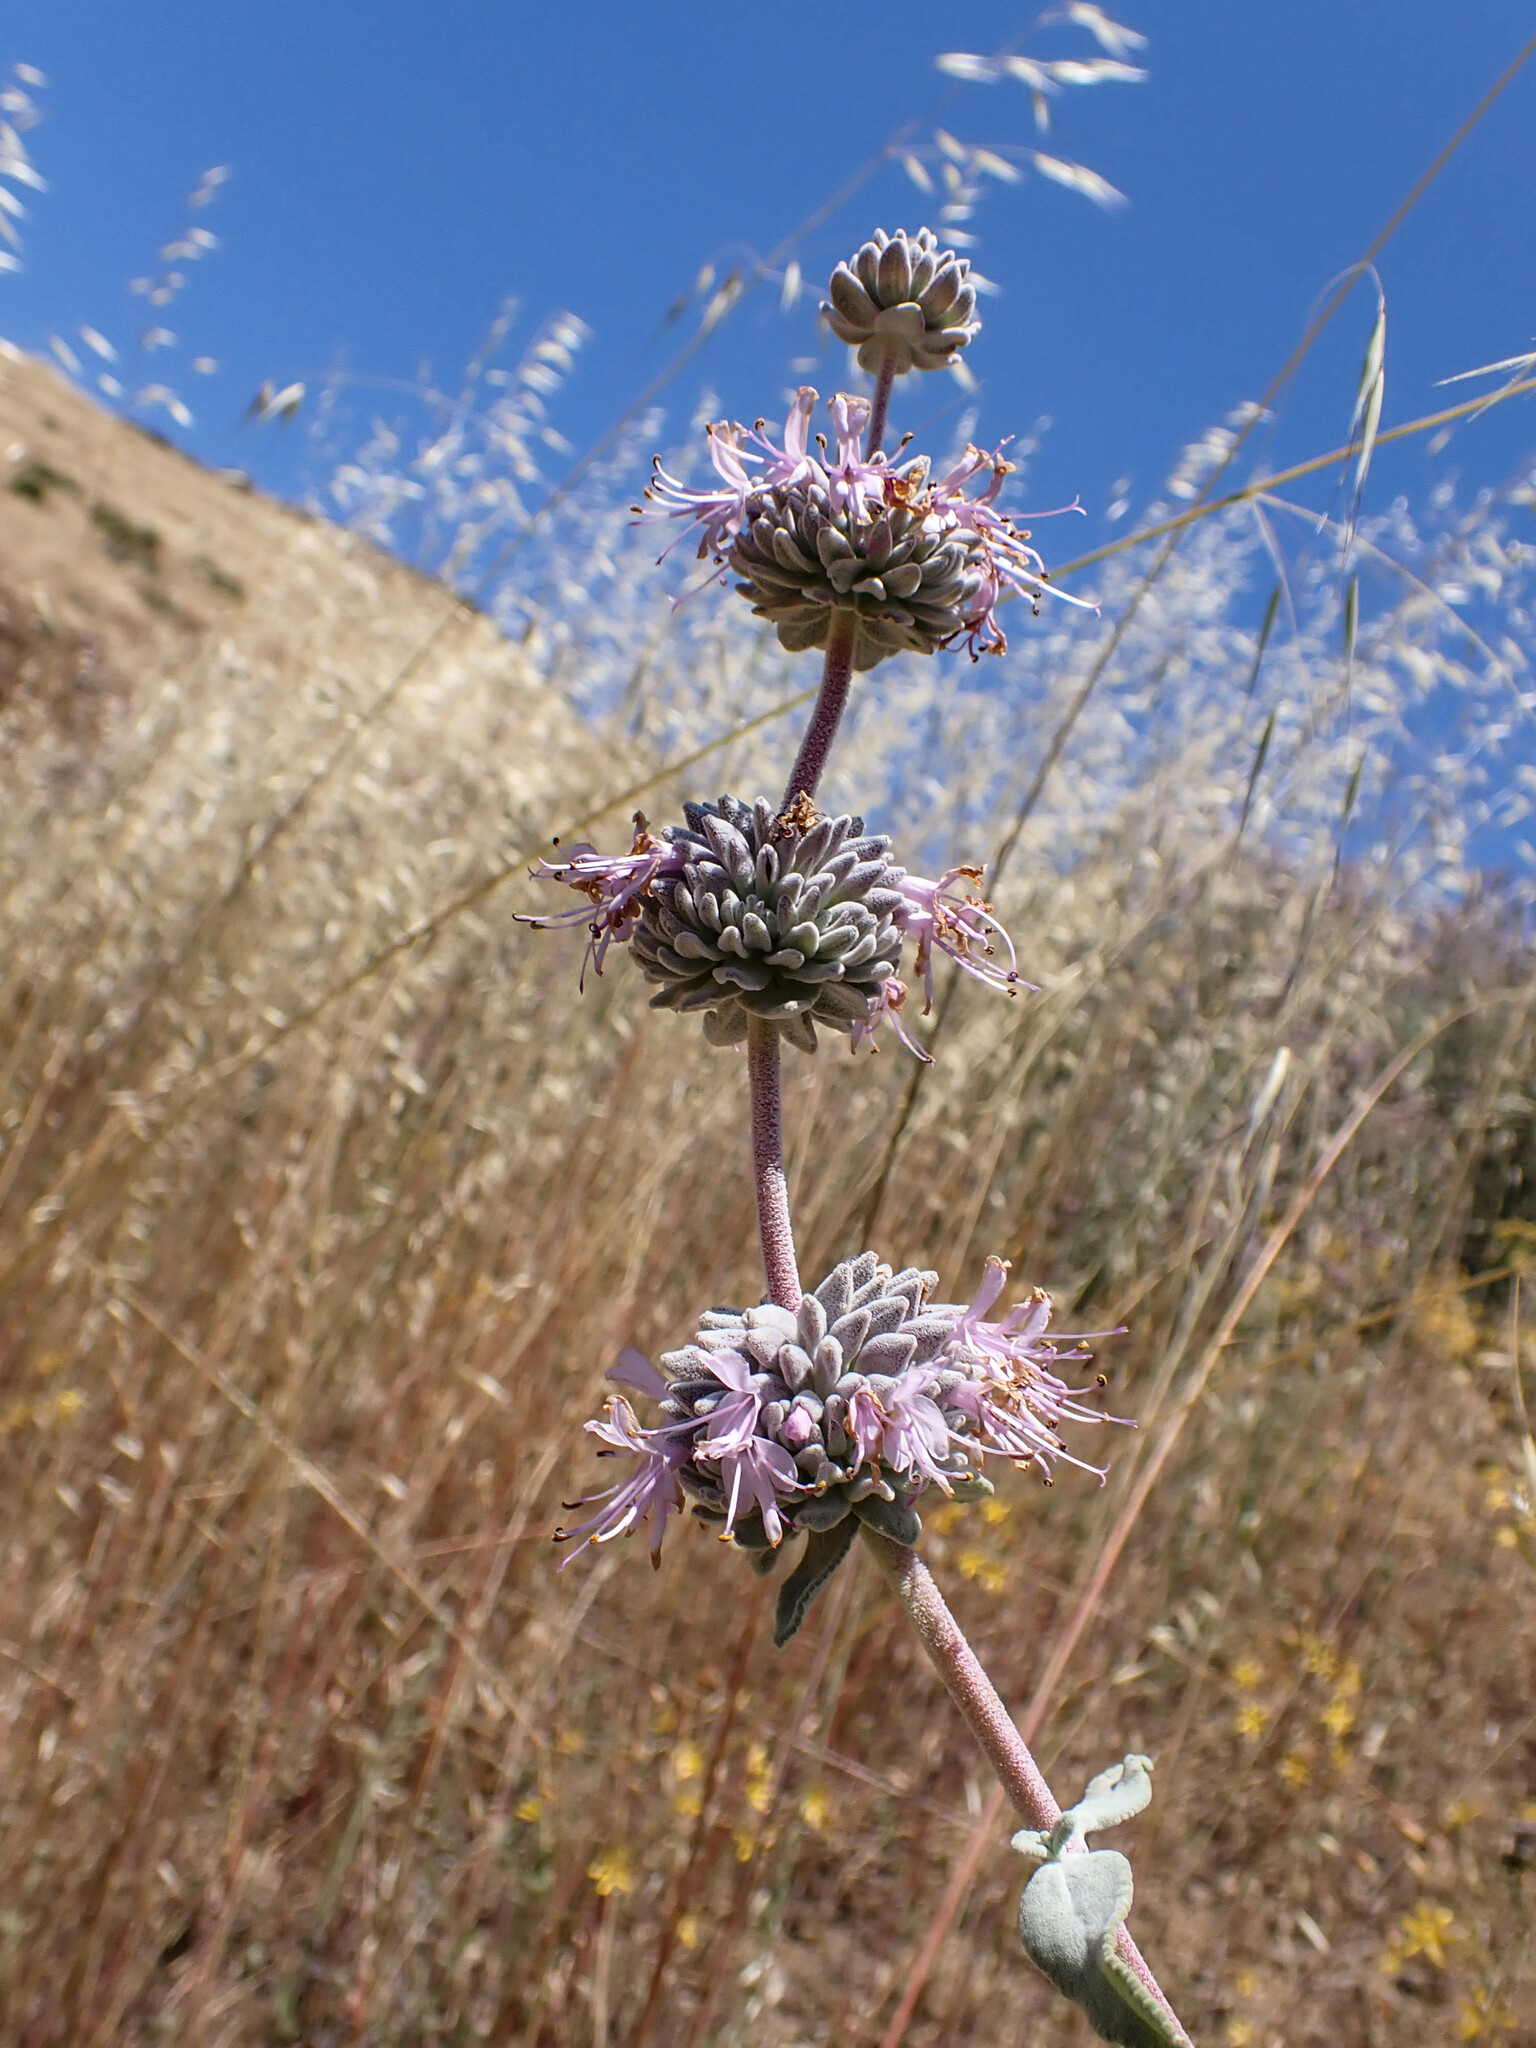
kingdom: Plantae
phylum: Tracheophyta
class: Magnoliopsida
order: Lamiales
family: Lamiaceae
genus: Salvia
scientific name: Salvia leucophylla
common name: Purple sage
